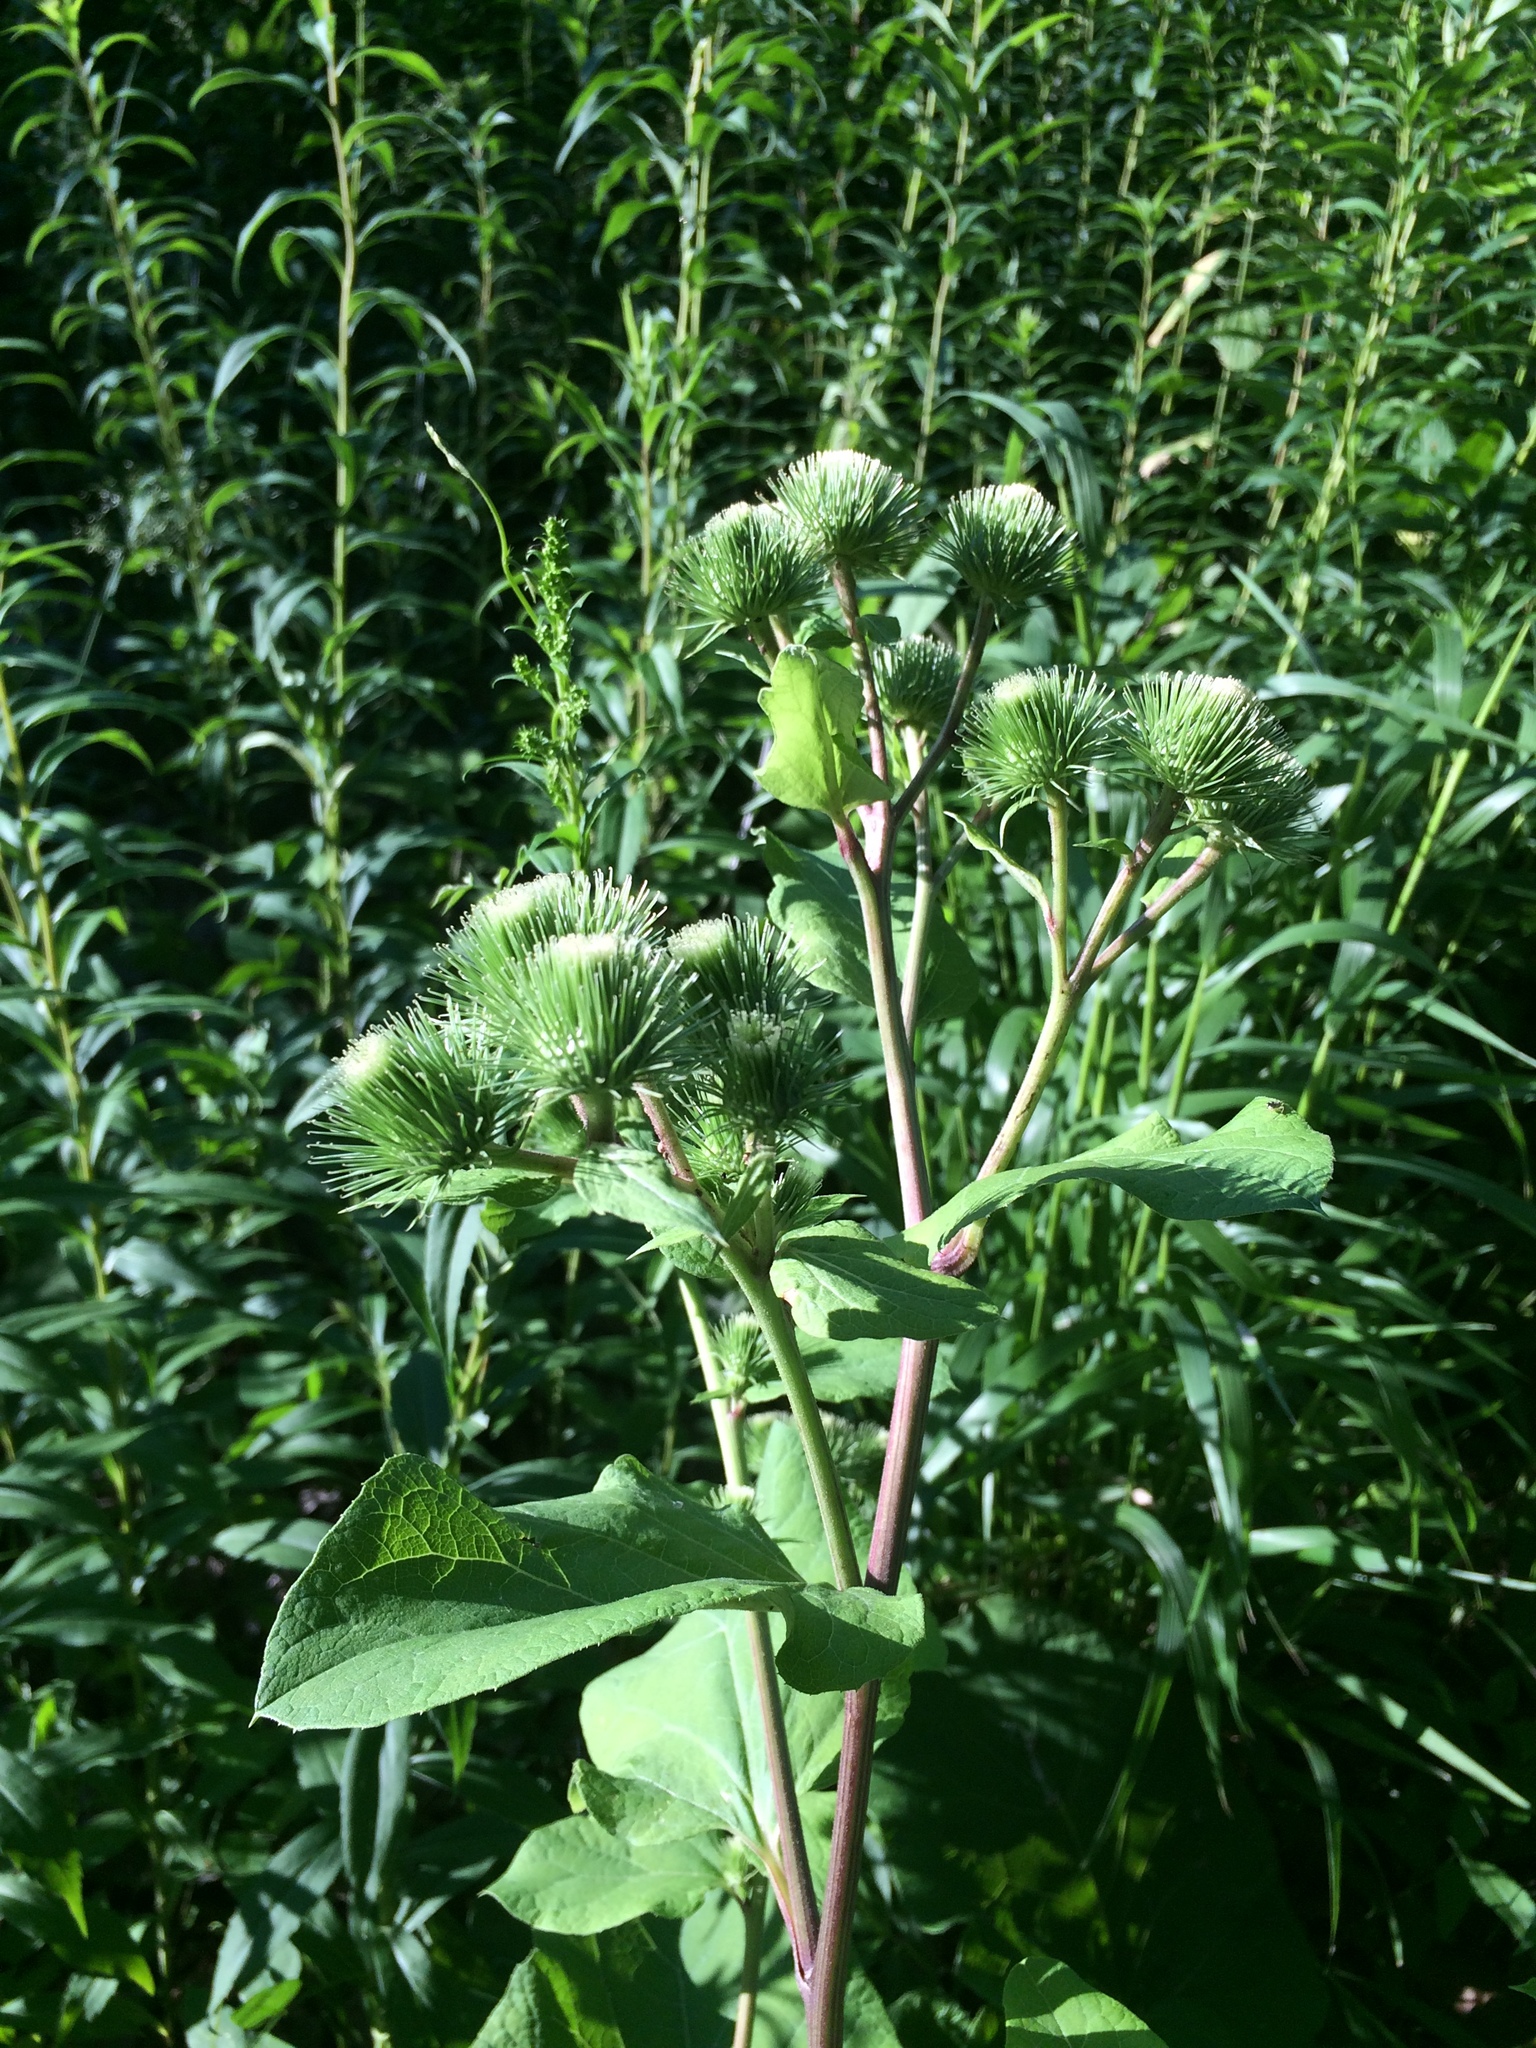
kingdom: Plantae
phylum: Tracheophyta
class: Magnoliopsida
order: Asterales
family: Asteraceae
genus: Arctium
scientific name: Arctium lappa
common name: Greater burdock
